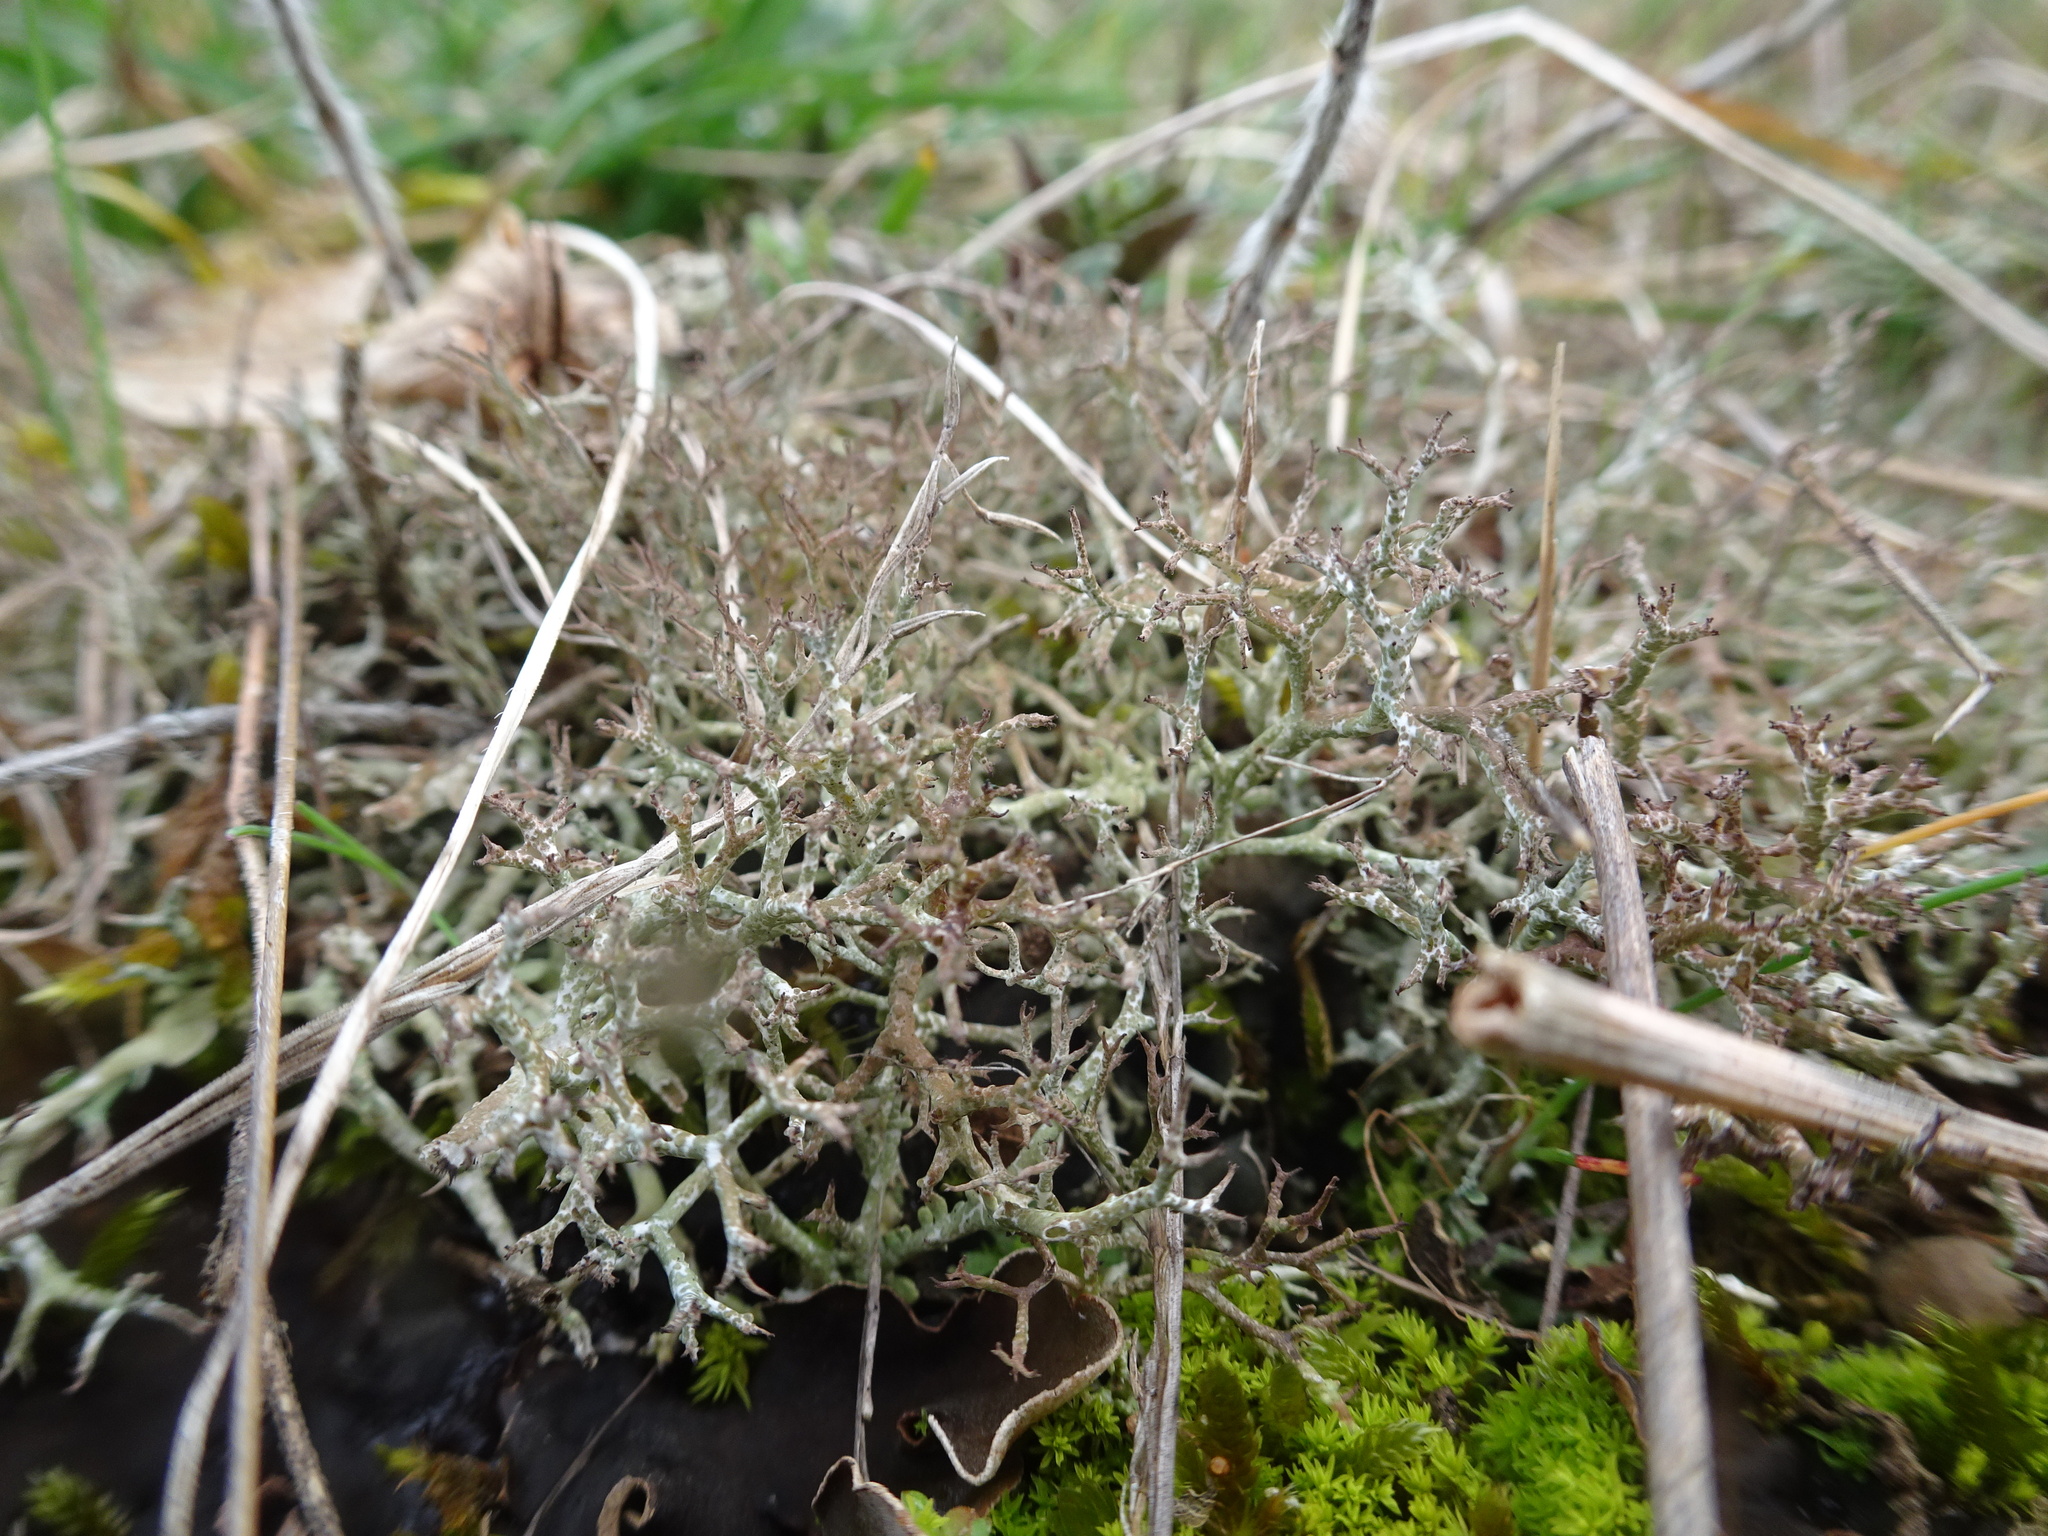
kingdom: Fungi
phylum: Ascomycota
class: Lecanoromycetes
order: Lecanorales
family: Cladoniaceae
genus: Cladonia
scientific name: Cladonia rangiformis
